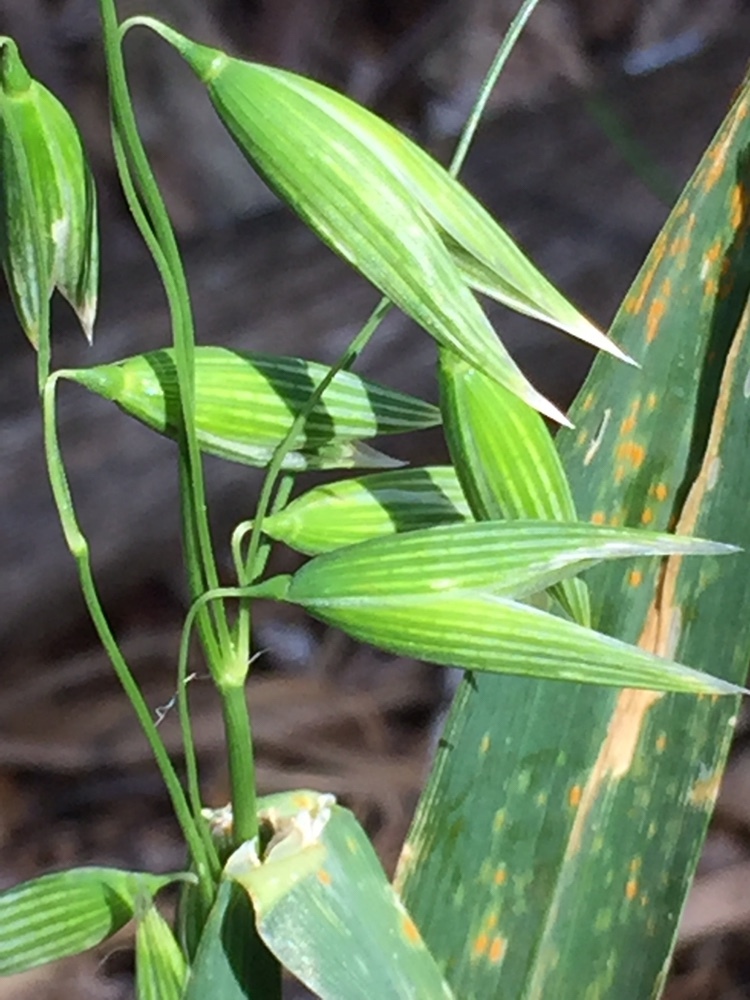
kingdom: Plantae
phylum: Tracheophyta
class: Liliopsida
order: Poales
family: Poaceae
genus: Avena
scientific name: Avena sativa
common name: Oat
